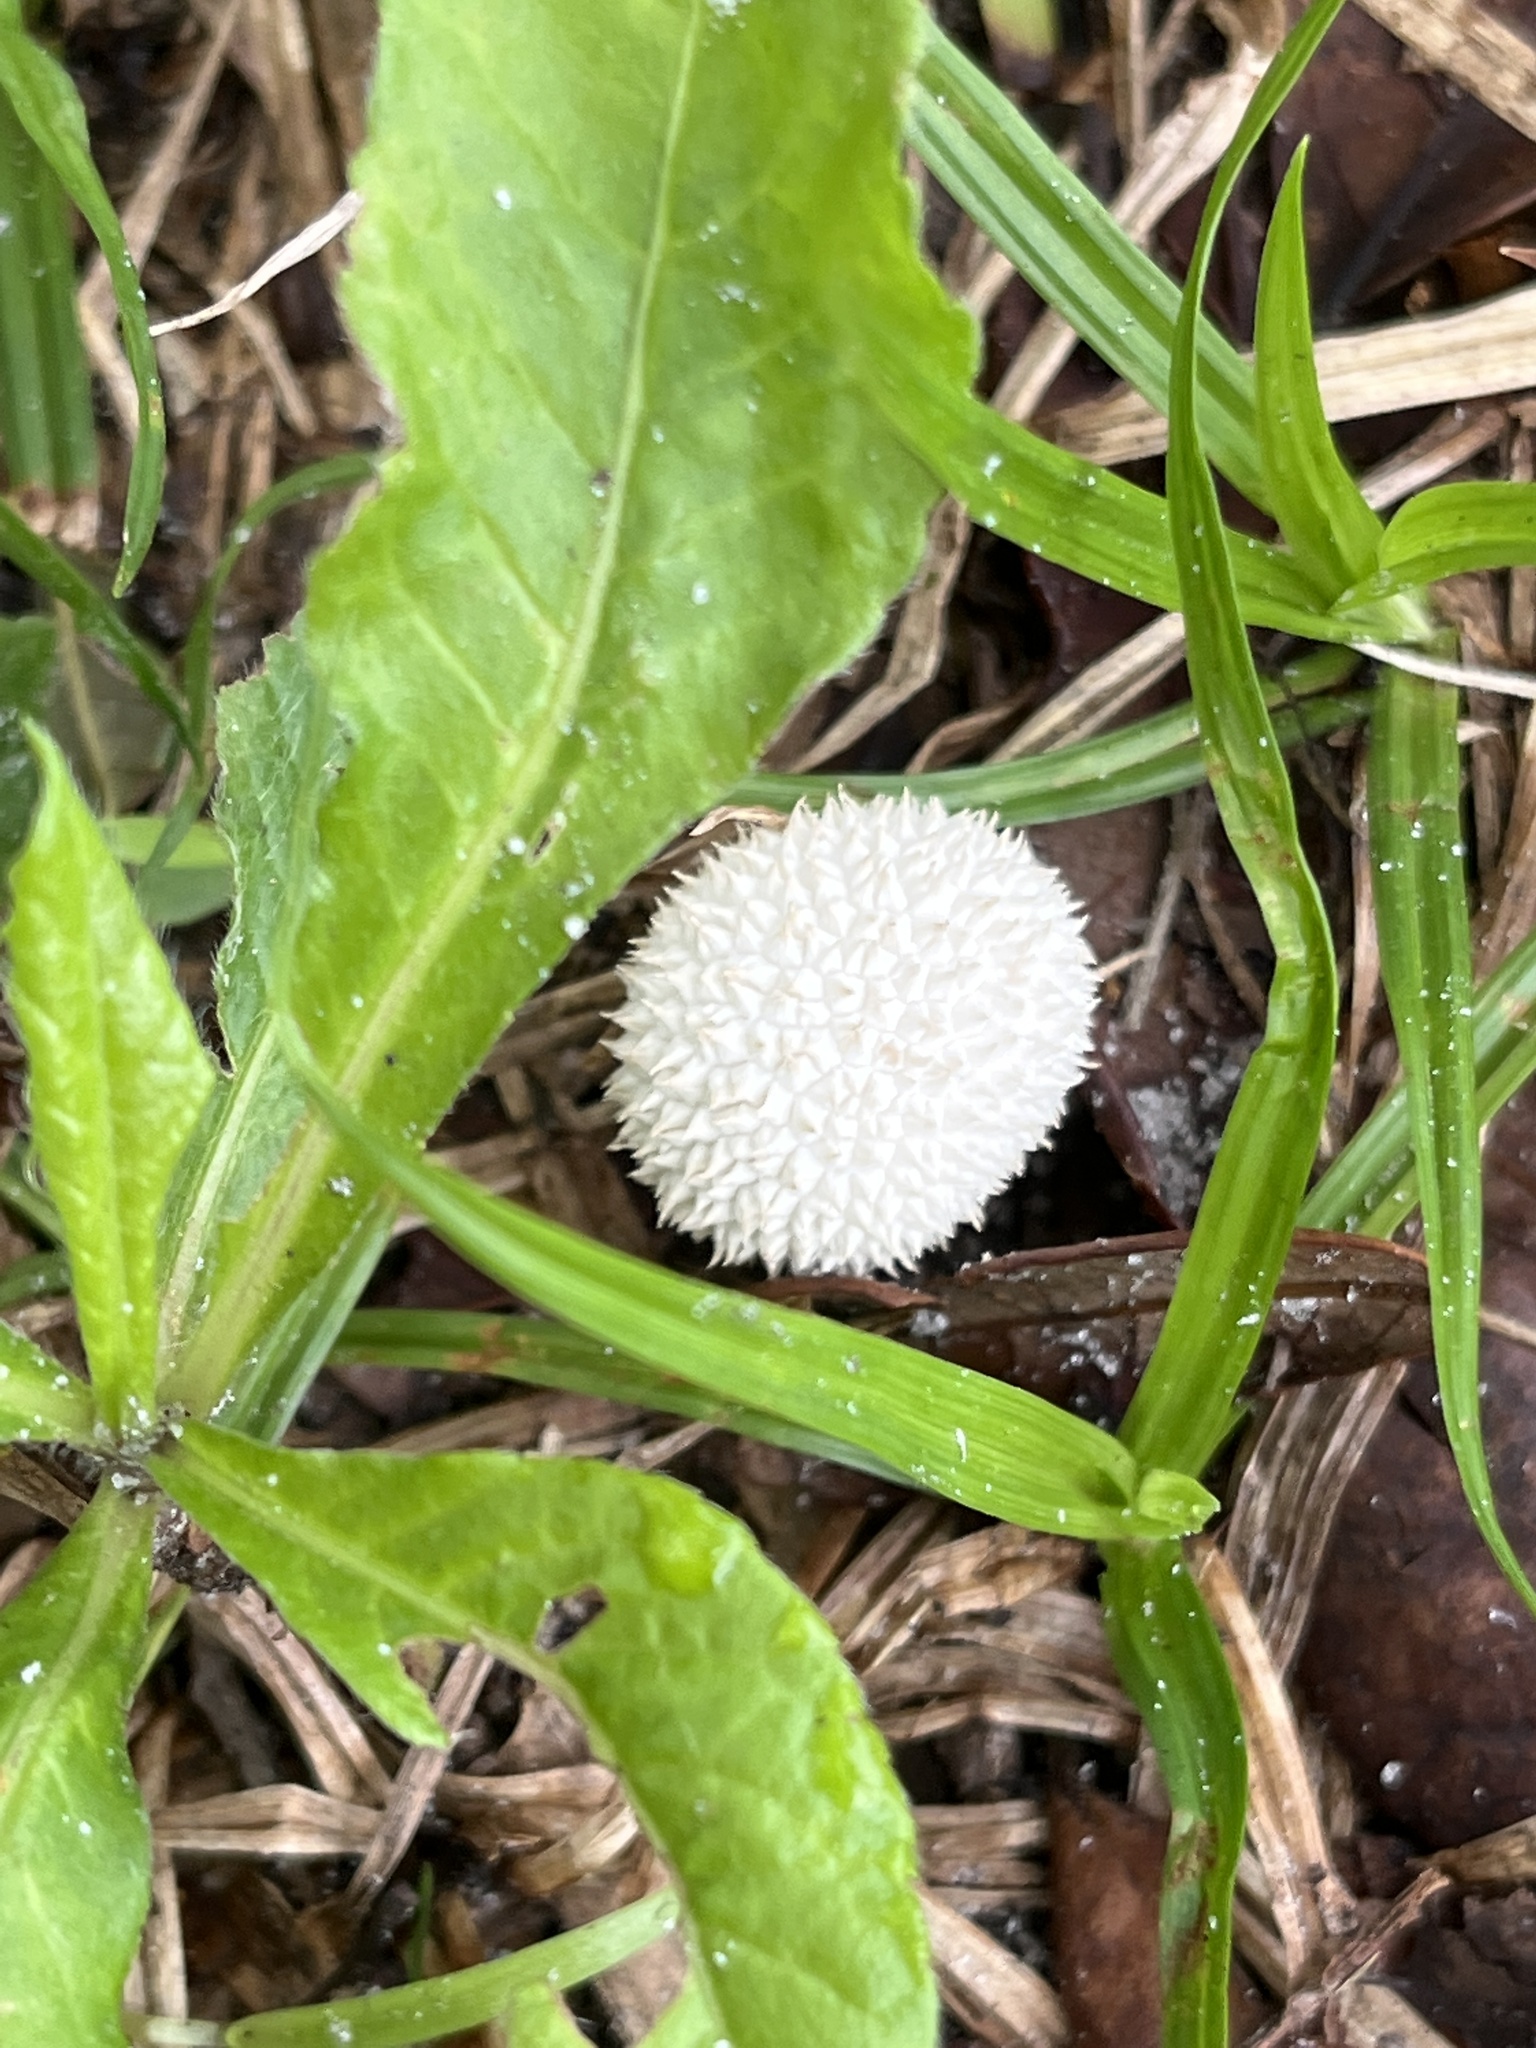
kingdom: Fungi
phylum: Basidiomycota
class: Agaricomycetes
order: Agaricales
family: Agaricaceae
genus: Lycoperdon
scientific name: Lycoperdon marginatum
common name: Peeling puffball
